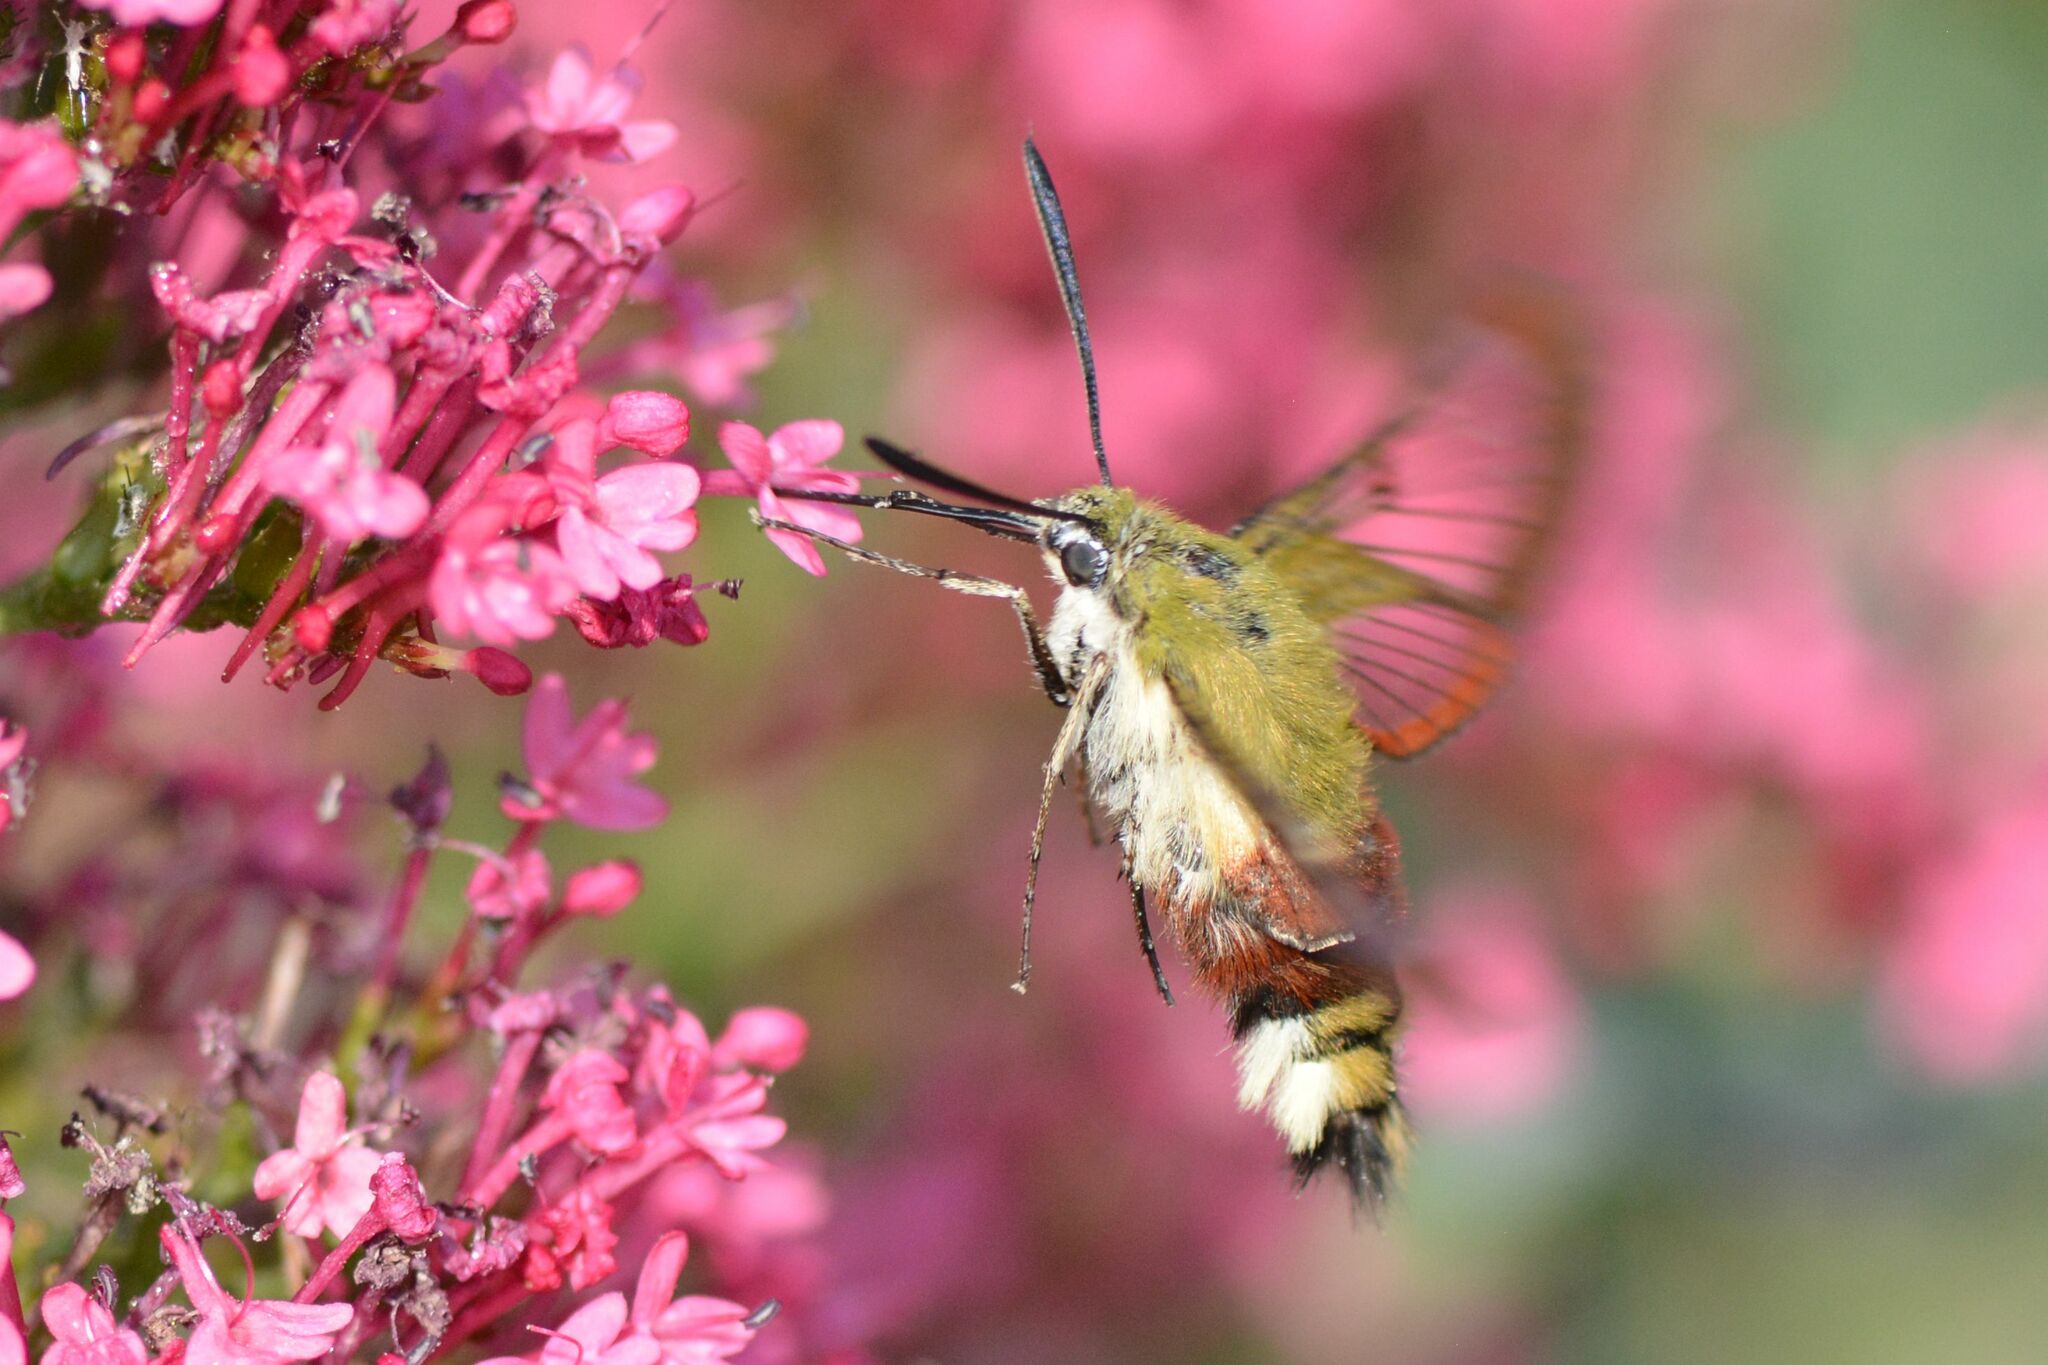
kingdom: Animalia
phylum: Arthropoda
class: Insecta
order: Lepidoptera
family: Sphingidae
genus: Hemaris
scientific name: Hemaris fuciformis
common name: Broad-bordered bee hawk-moth
